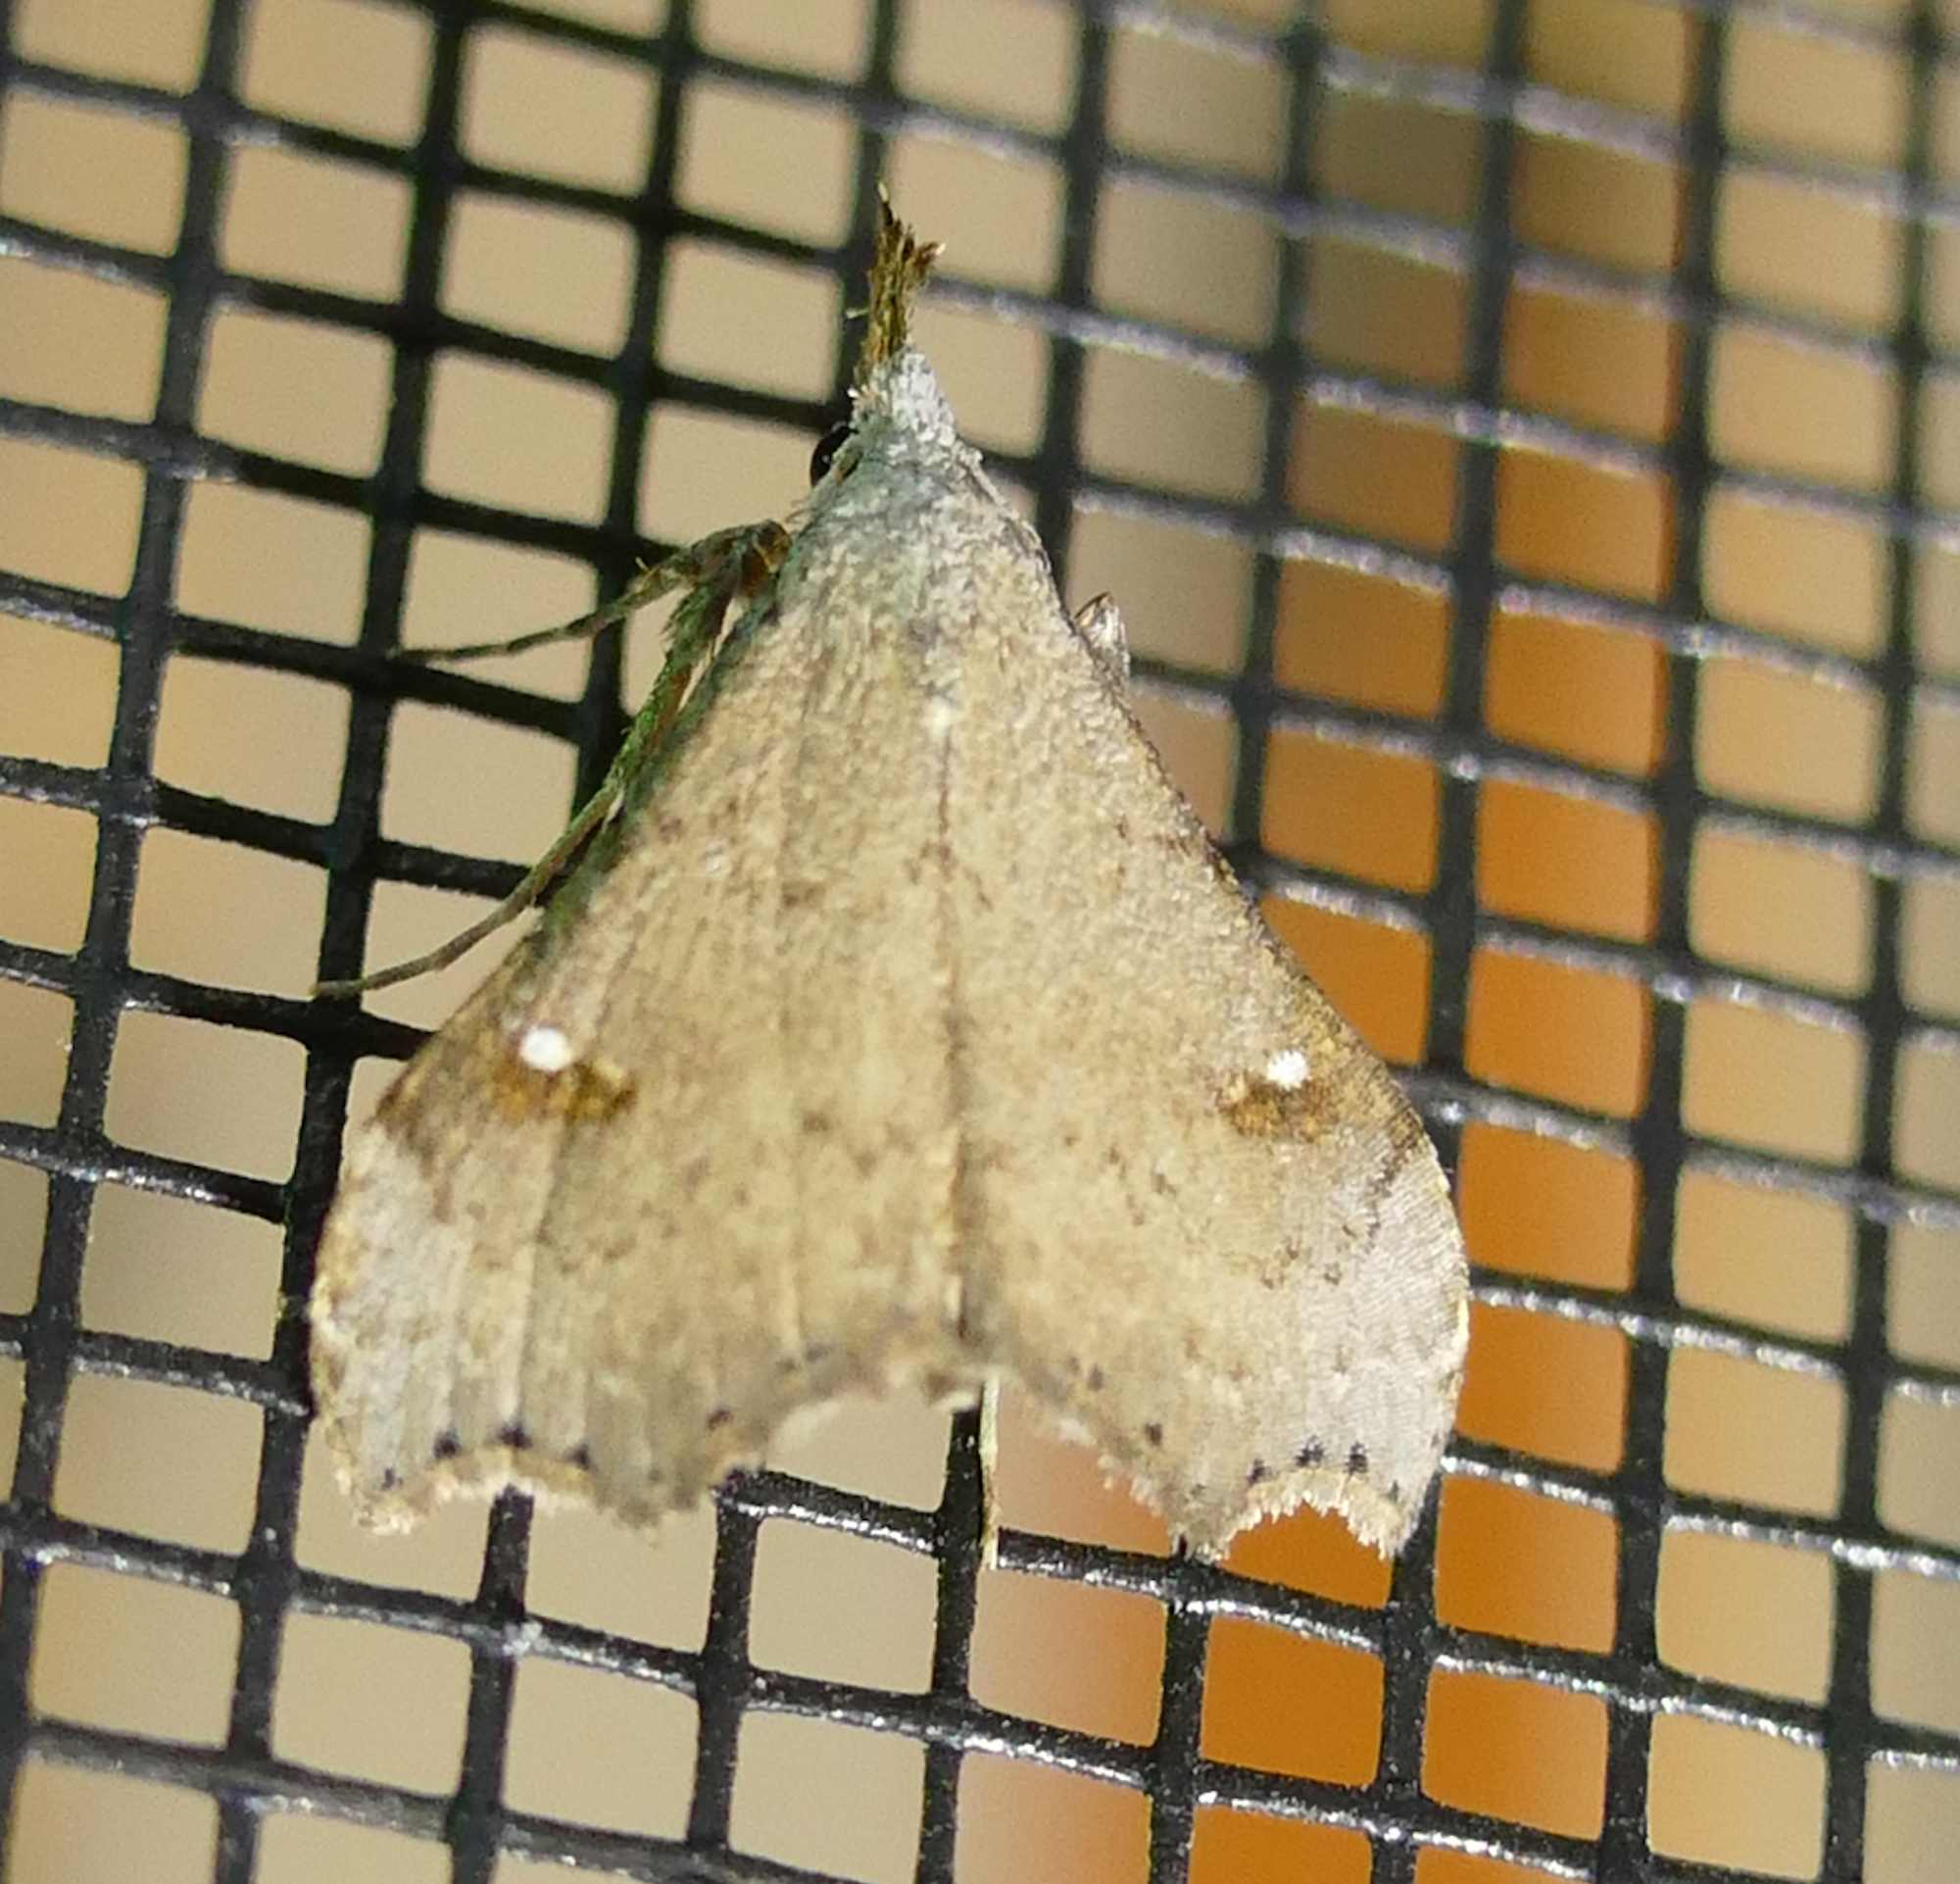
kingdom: Animalia
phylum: Arthropoda
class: Insecta
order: Lepidoptera
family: Erebidae
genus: Redectis
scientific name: Redectis vitrea
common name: White-spotted redectis
